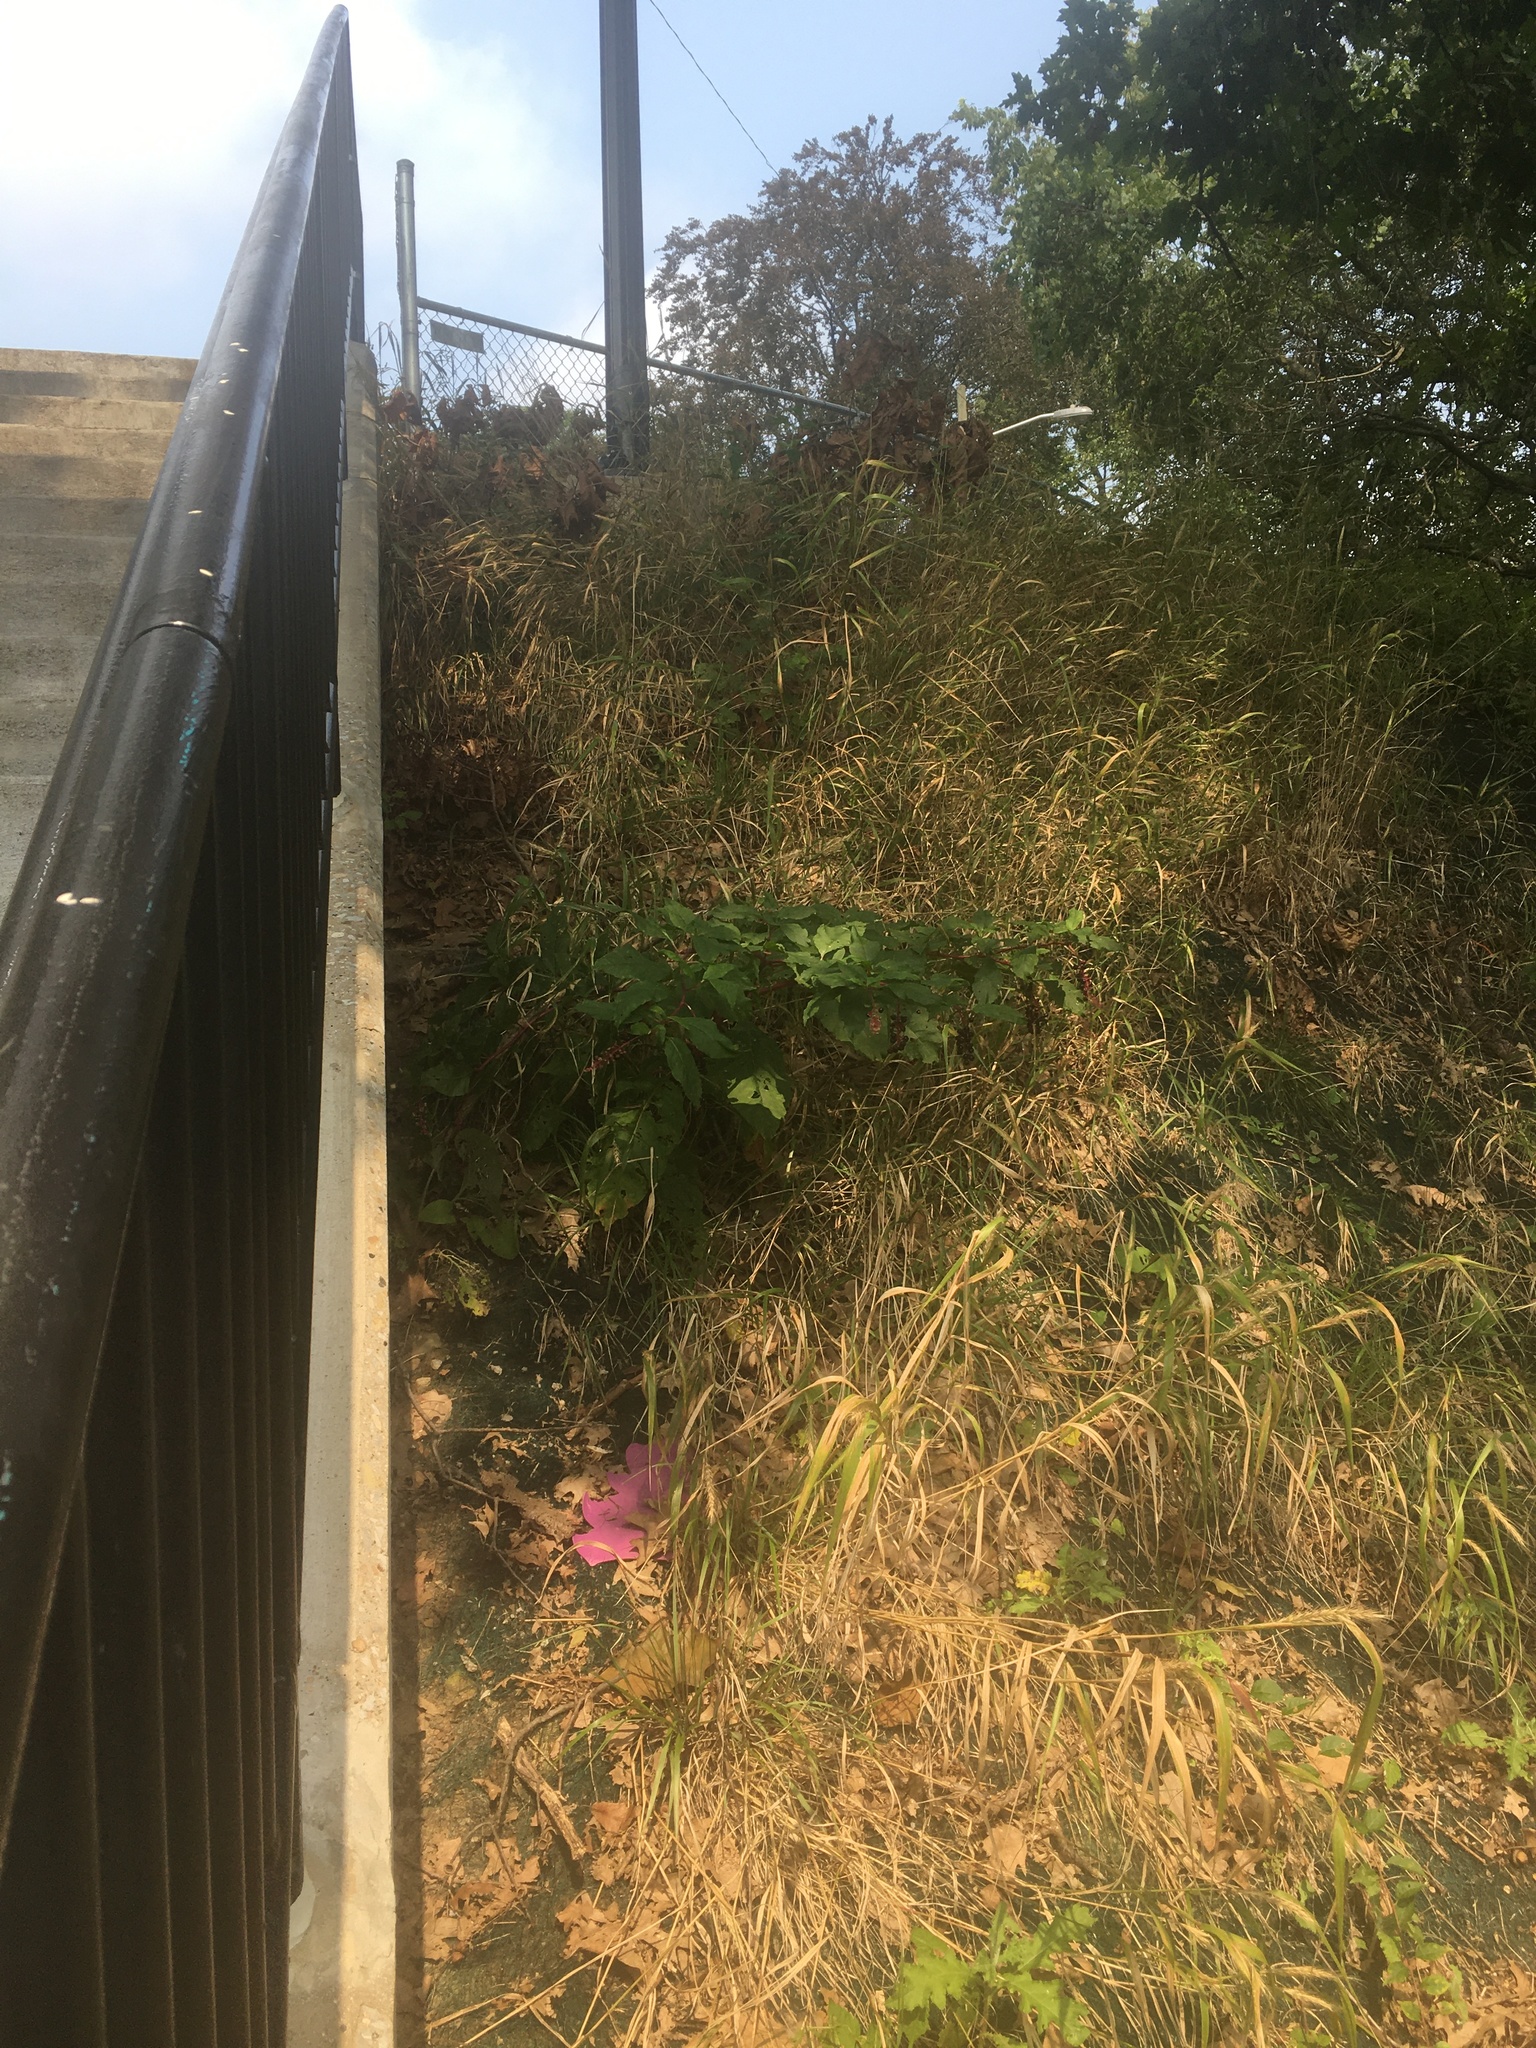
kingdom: Plantae
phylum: Tracheophyta
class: Magnoliopsida
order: Caryophyllales
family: Phytolaccaceae
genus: Phytolacca
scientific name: Phytolacca americana
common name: American pokeweed
